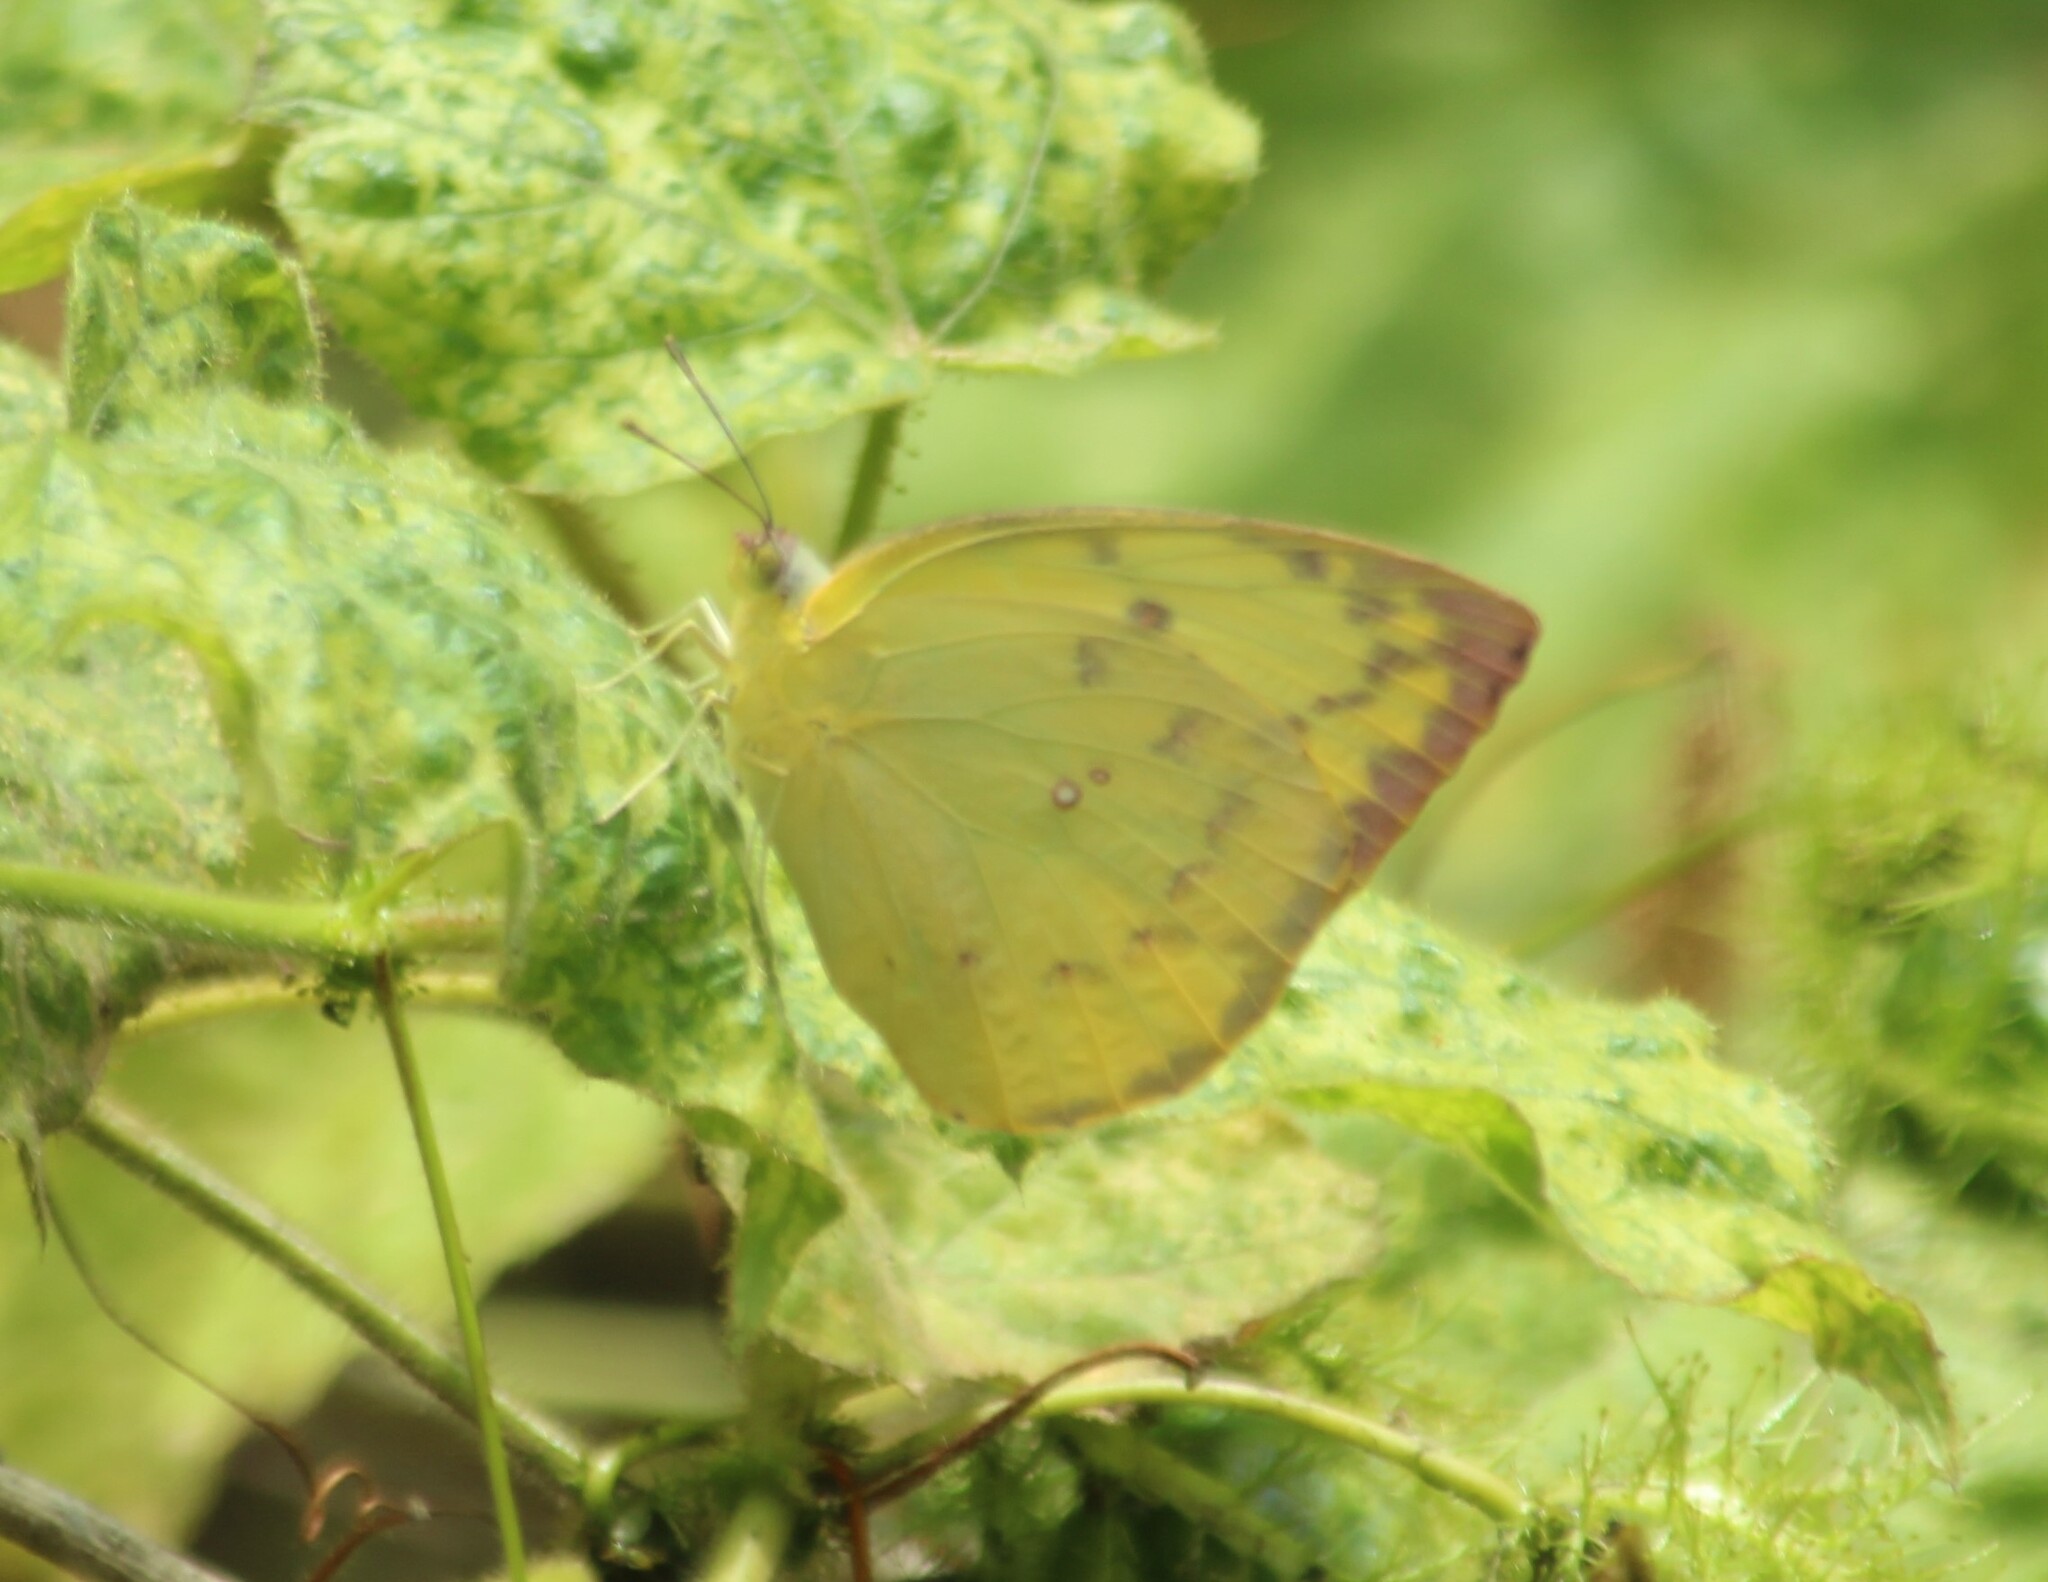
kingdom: Animalia
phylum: Arthropoda
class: Insecta
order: Lepidoptera
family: Pieridae
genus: Catopsilia
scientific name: Catopsilia pomona
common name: Common emigrant
